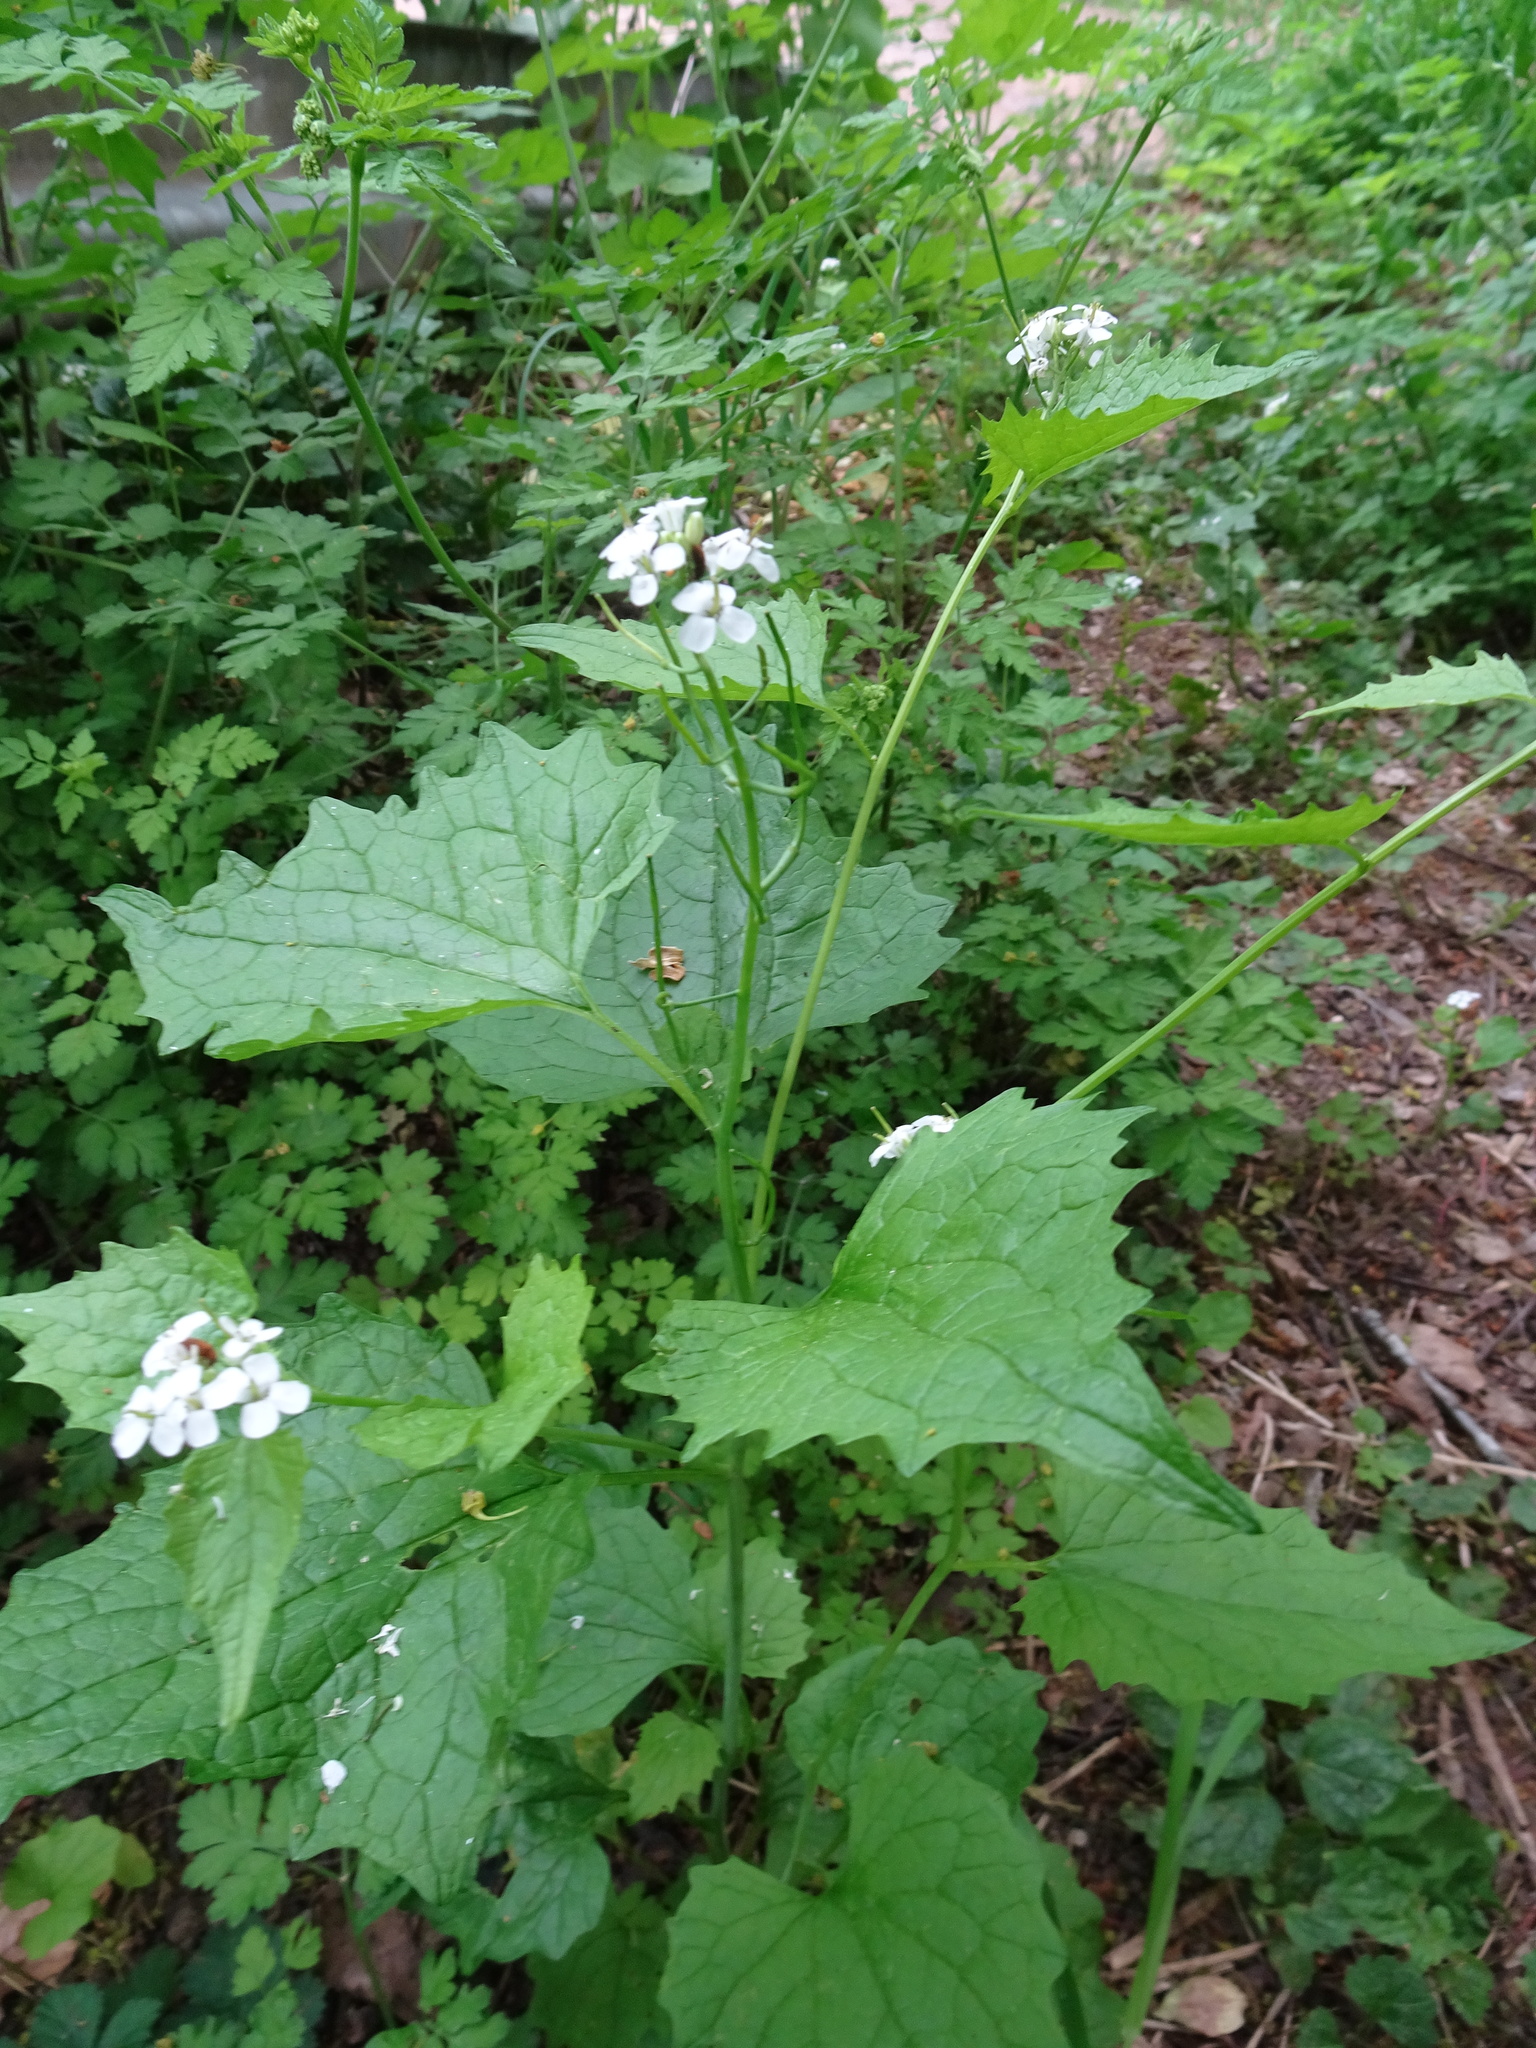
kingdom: Plantae
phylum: Tracheophyta
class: Magnoliopsida
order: Brassicales
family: Brassicaceae
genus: Alliaria
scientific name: Alliaria petiolata
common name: Garlic mustard
